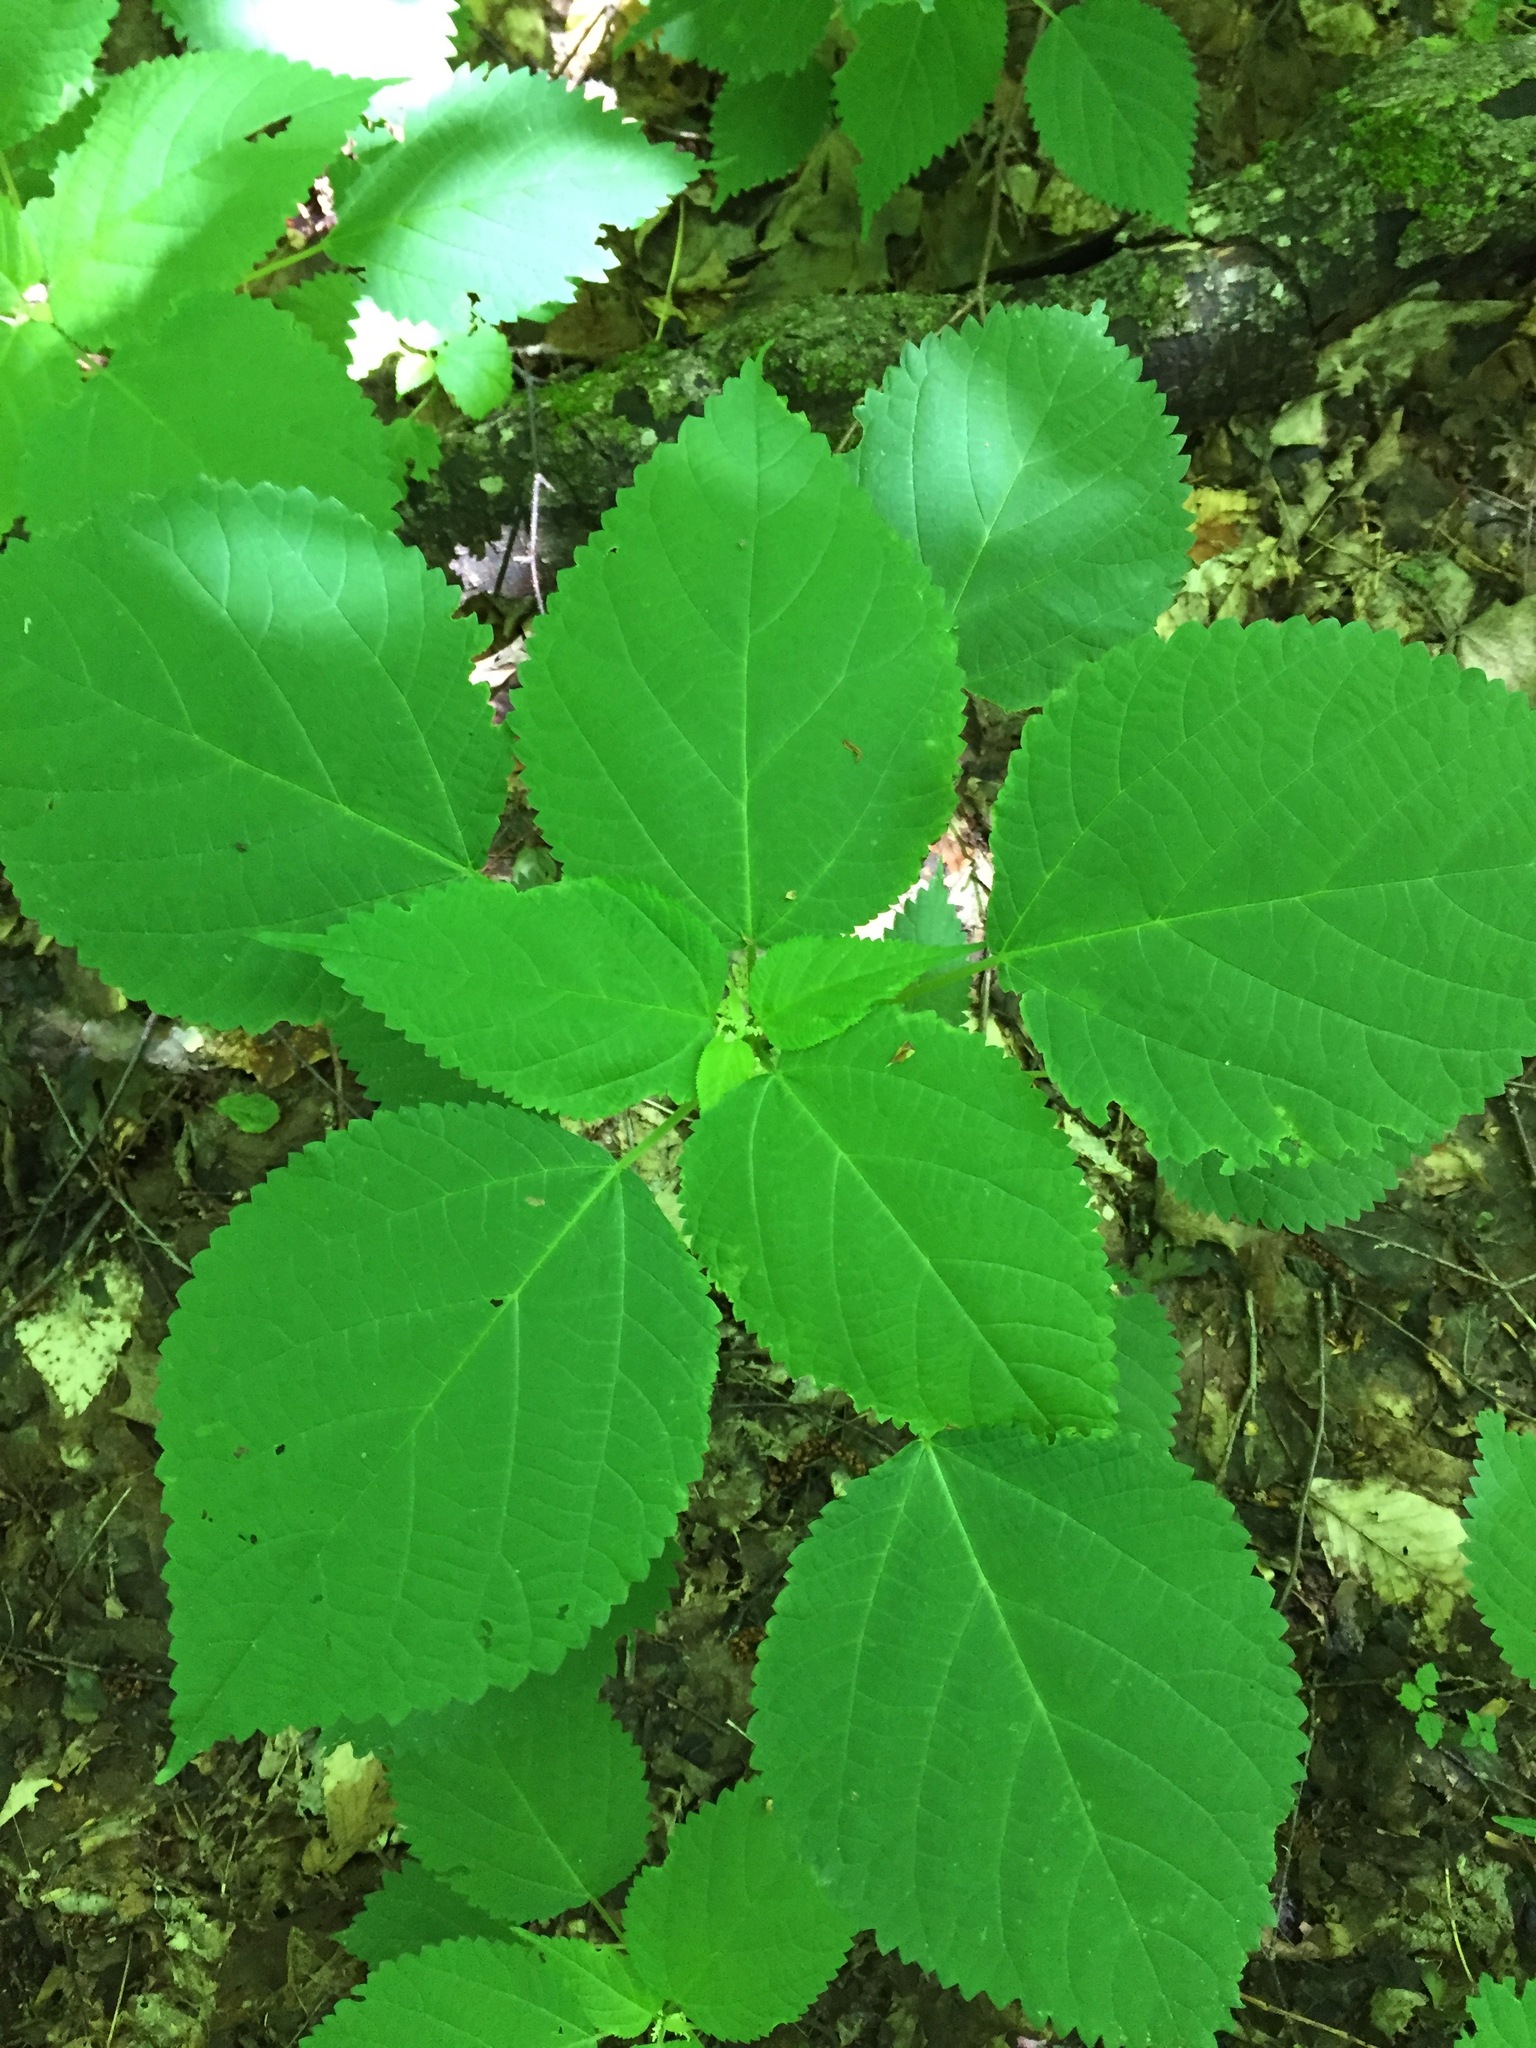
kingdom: Plantae
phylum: Tracheophyta
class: Magnoliopsida
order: Rosales
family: Urticaceae
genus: Laportea
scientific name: Laportea canadensis
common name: Canada nettle
